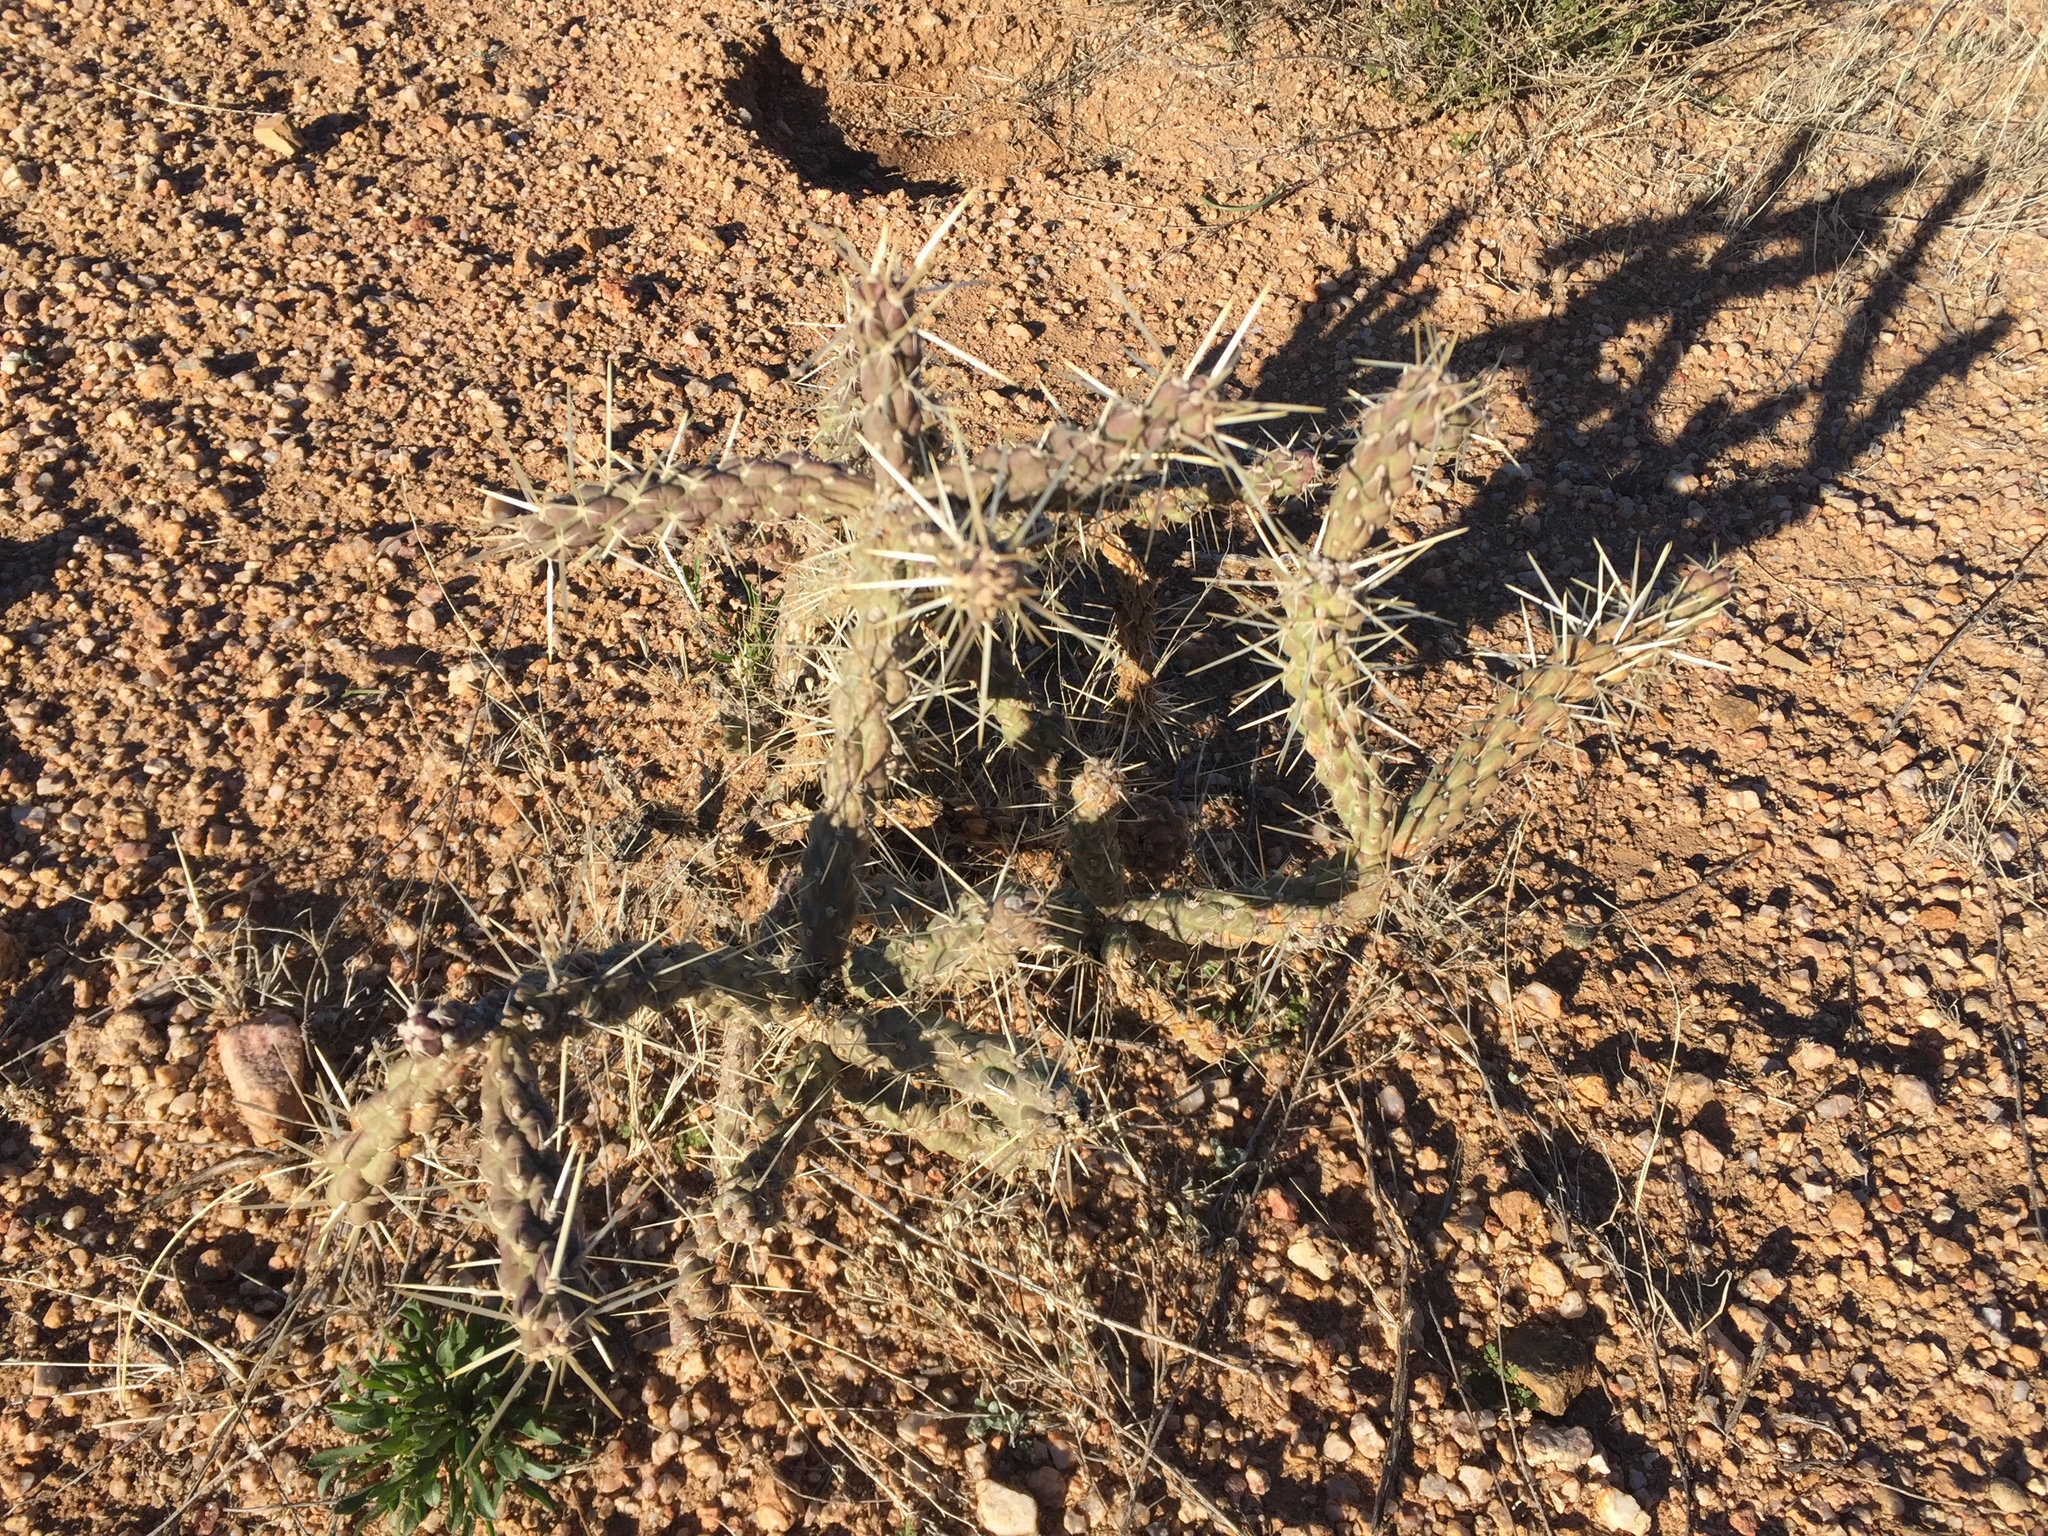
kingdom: Plantae
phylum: Tracheophyta
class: Magnoliopsida
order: Caryophyllales
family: Cactaceae
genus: Cylindropuntia
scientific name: Cylindropuntia acanthocarpa
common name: Buckhorn cholla
